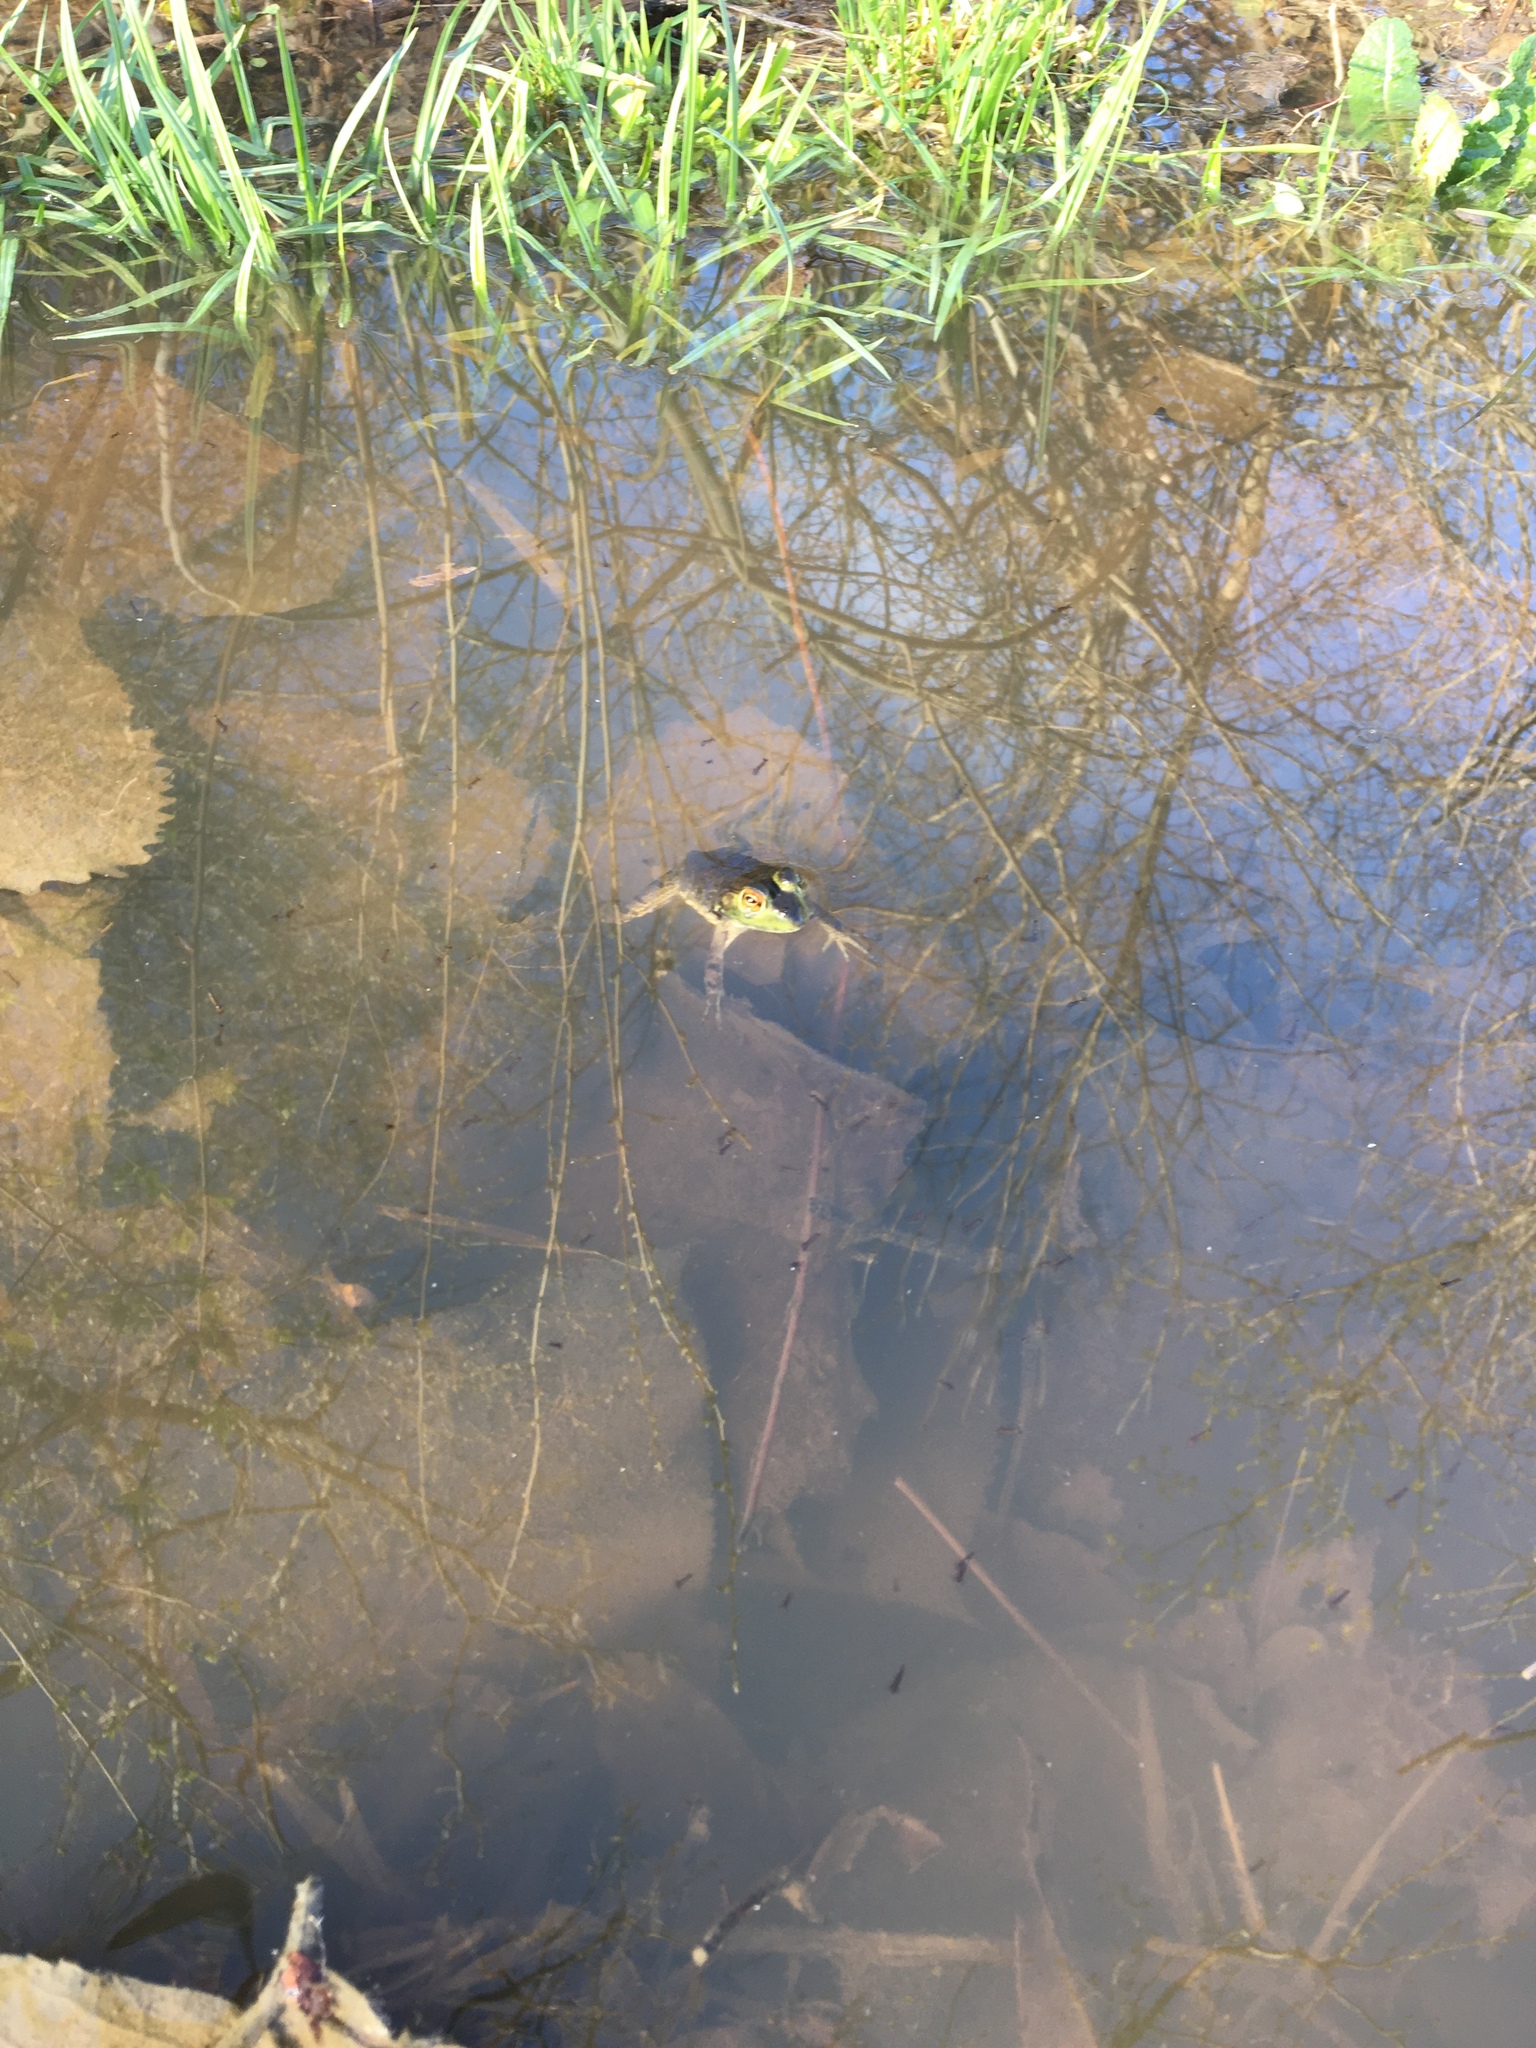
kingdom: Animalia
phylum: Chordata
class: Amphibia
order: Anura
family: Ranidae
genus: Lithobates
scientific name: Lithobates catesbeianus
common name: American bullfrog
